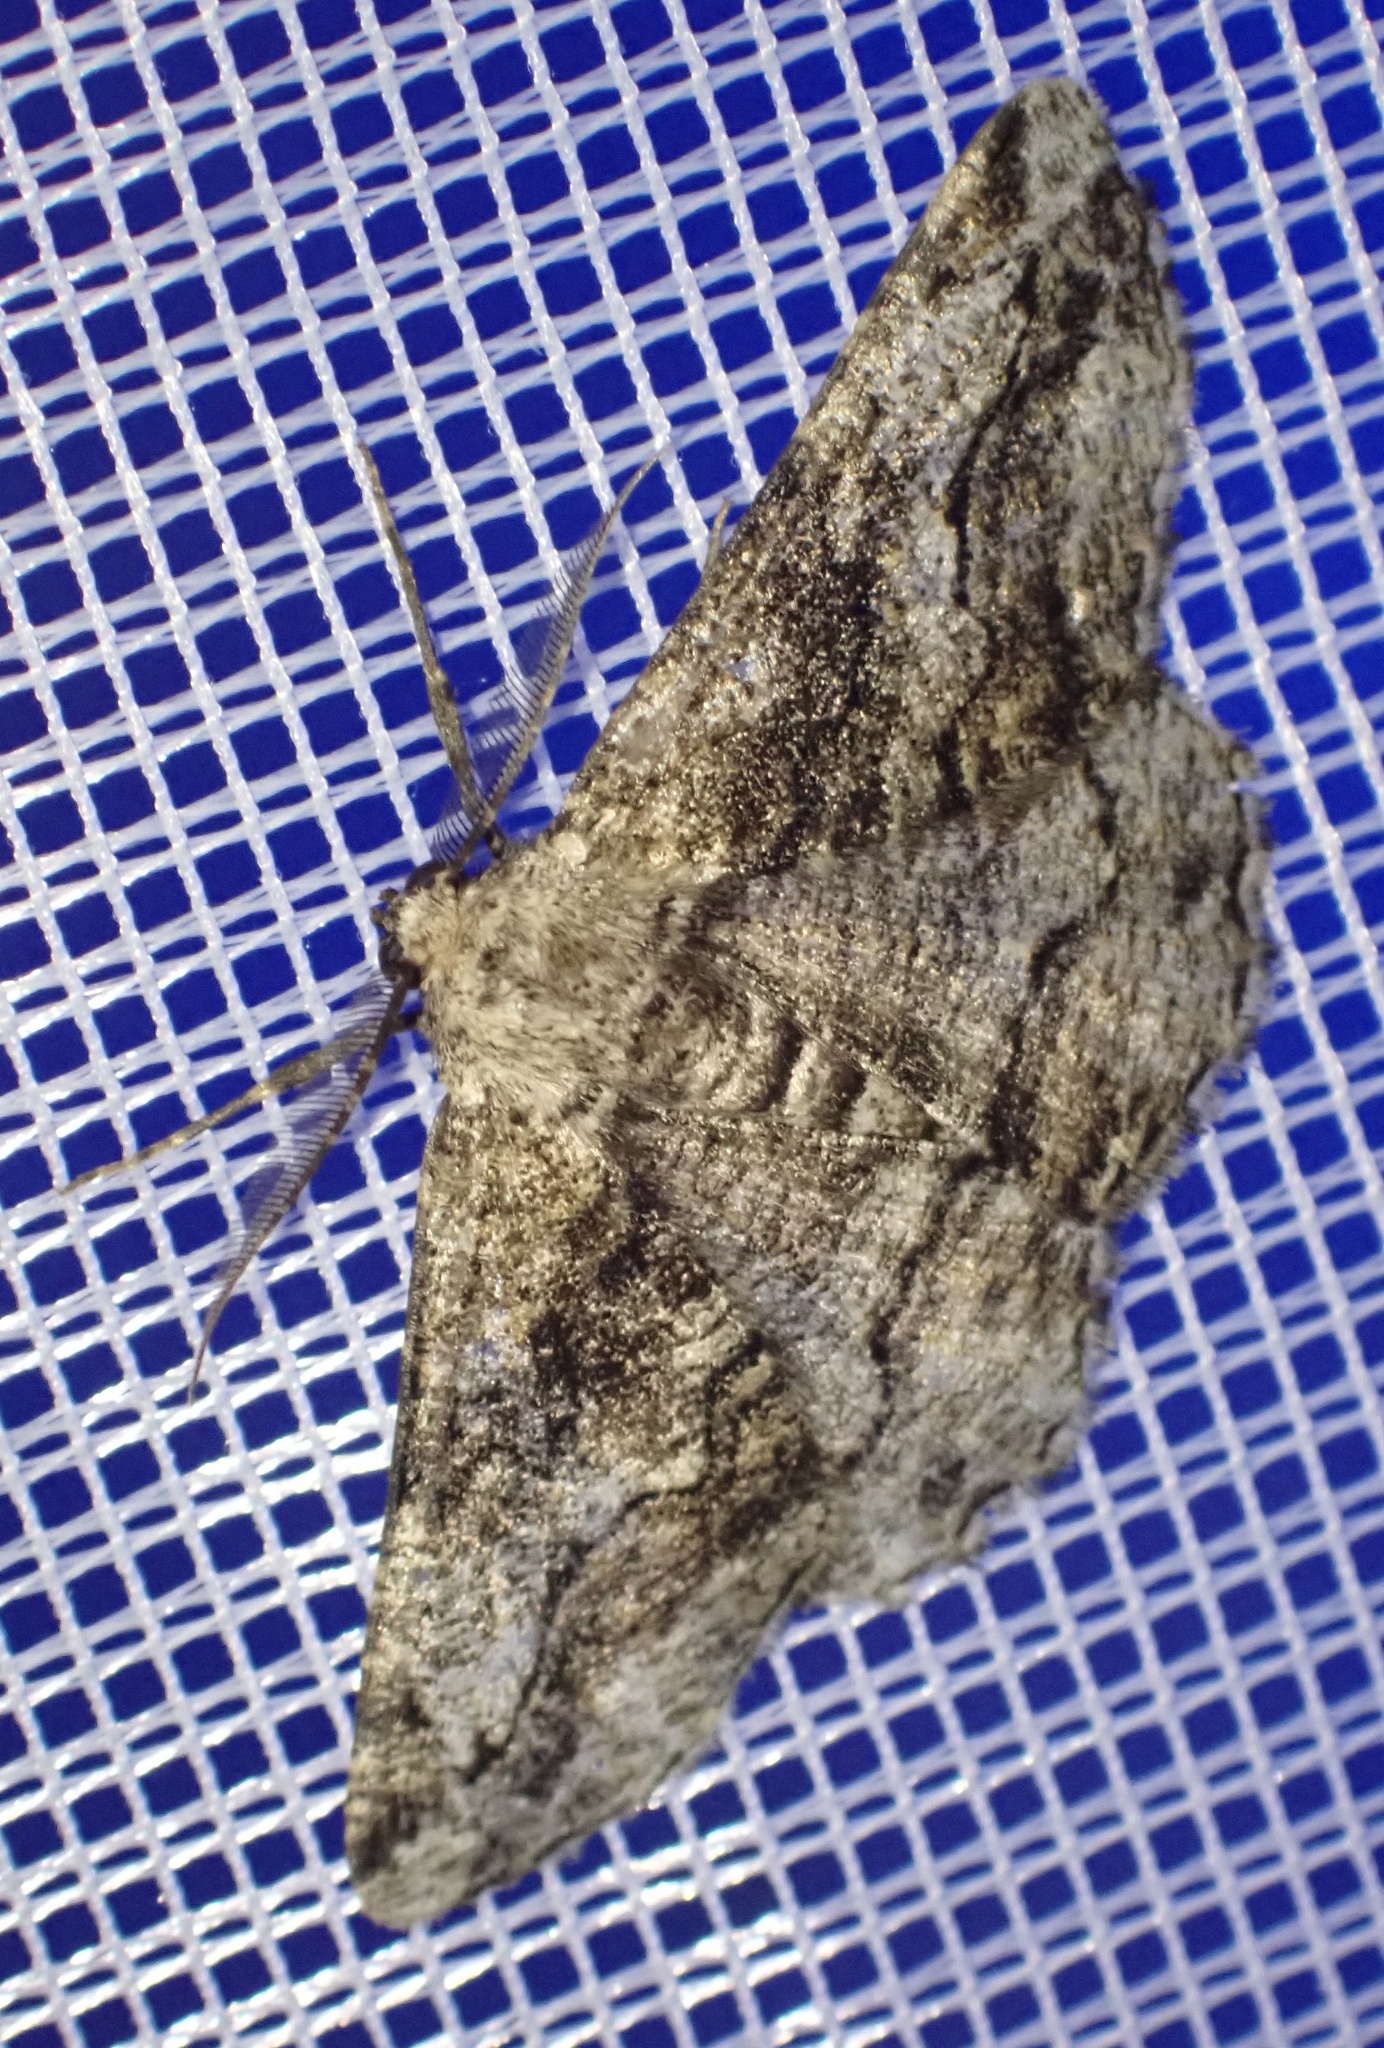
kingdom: Animalia
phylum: Arthropoda
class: Insecta
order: Lepidoptera
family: Geometridae
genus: Synopsia
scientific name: Synopsia sociaria
